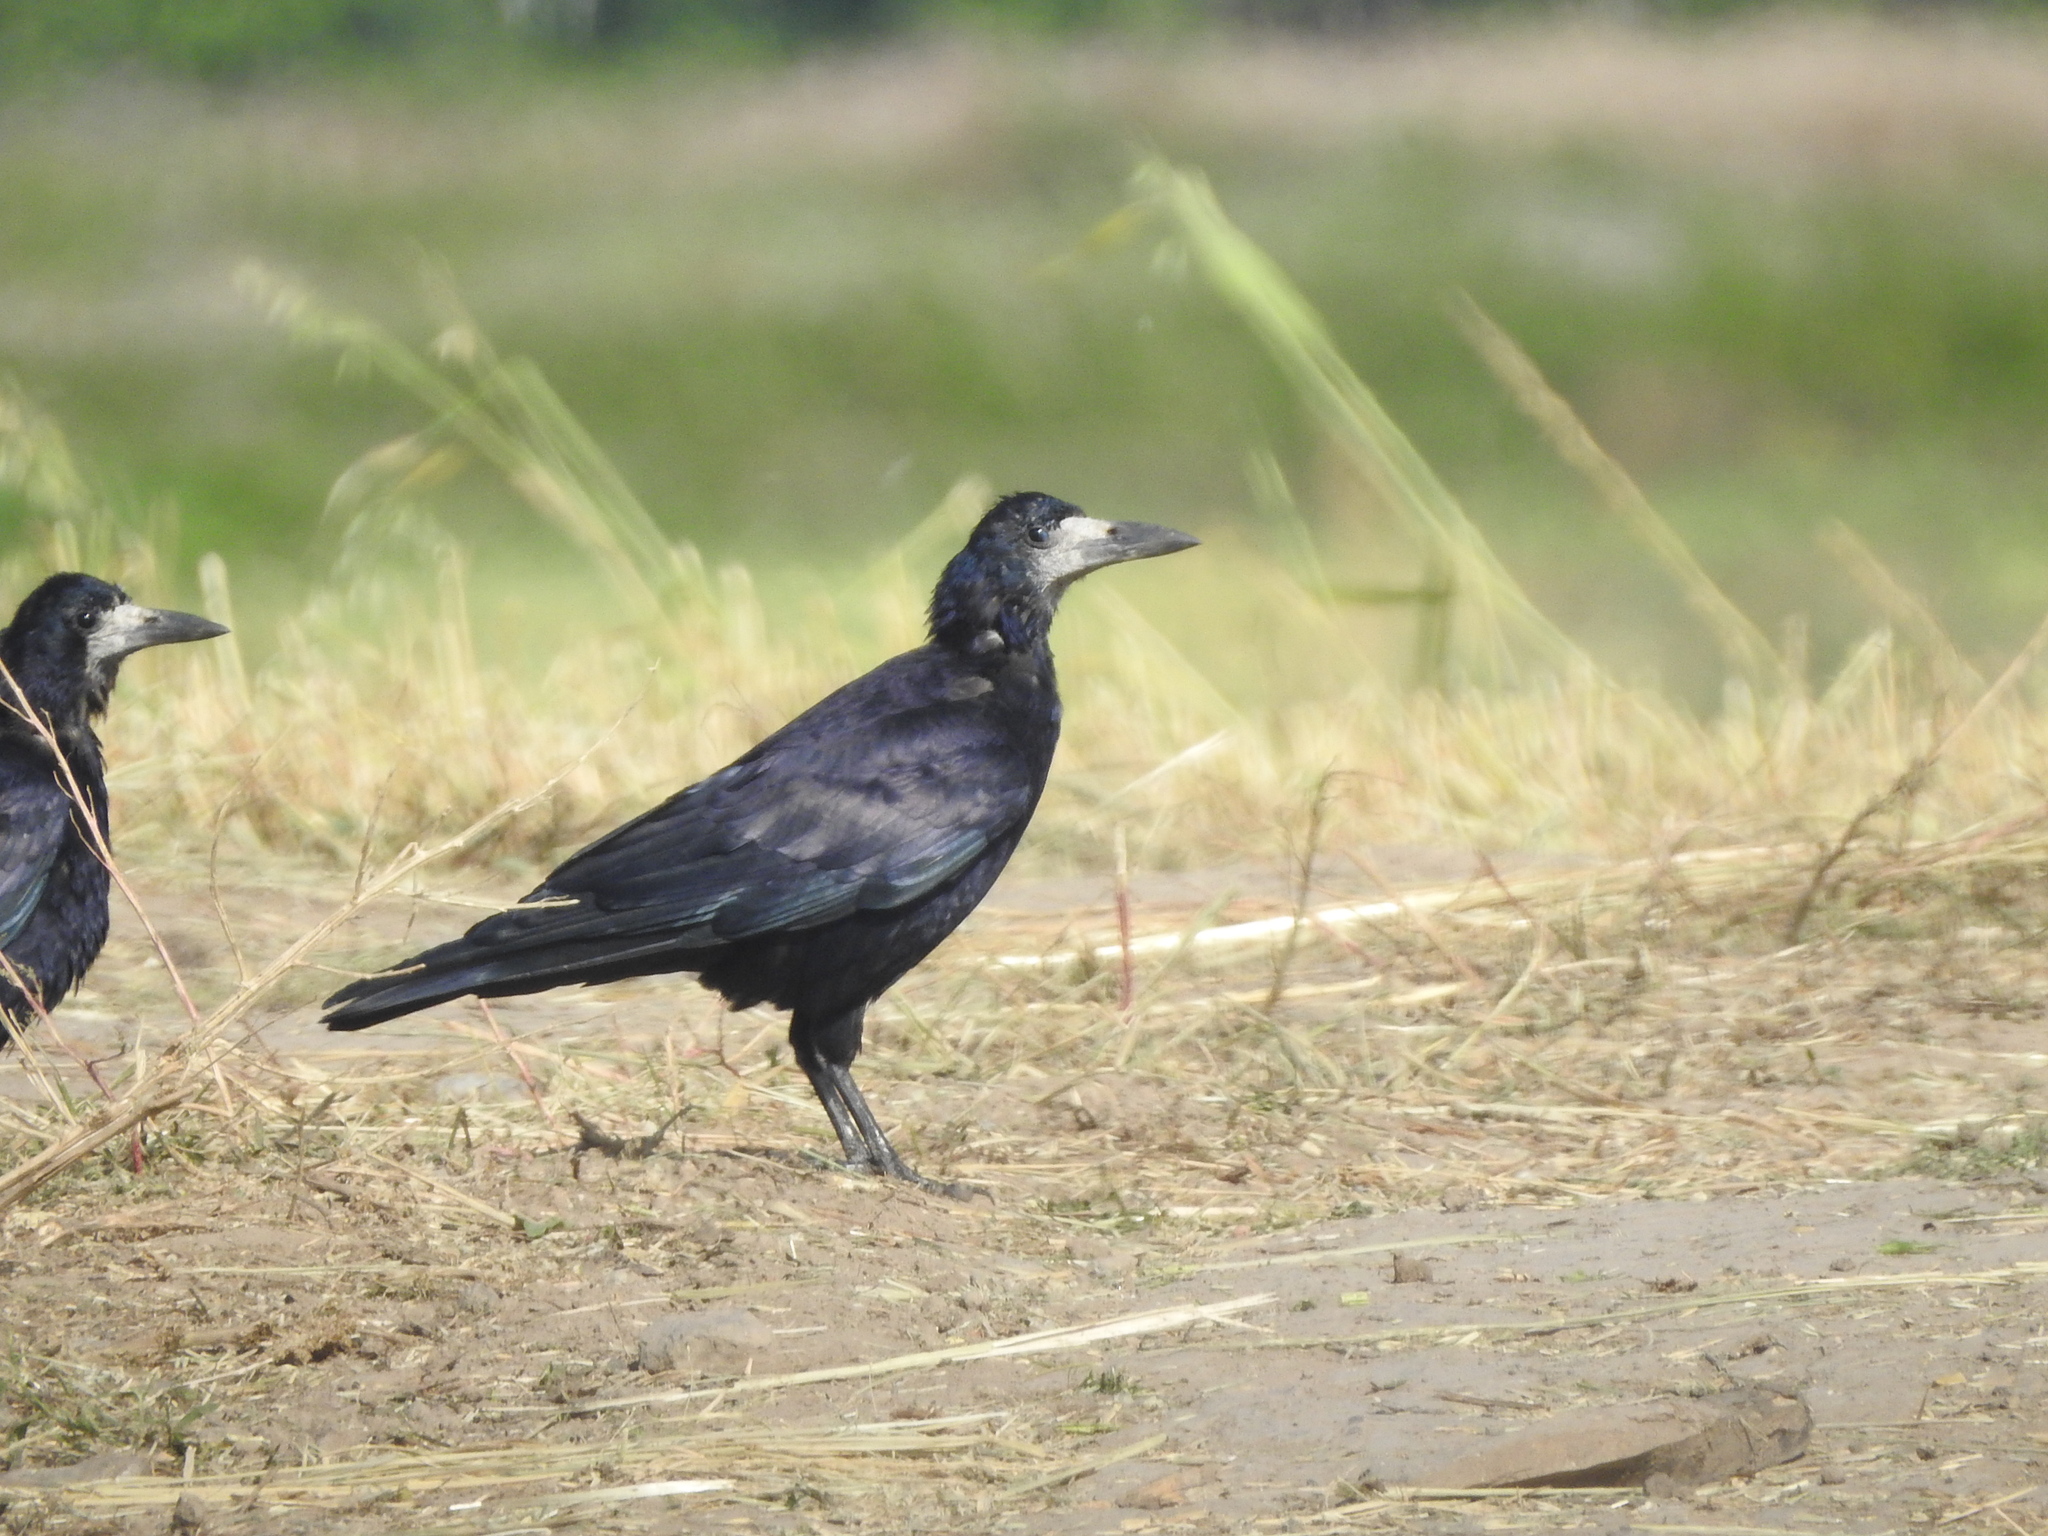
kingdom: Animalia
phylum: Chordata
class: Aves
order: Passeriformes
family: Corvidae
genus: Corvus
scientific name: Corvus frugilegus
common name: Rook
